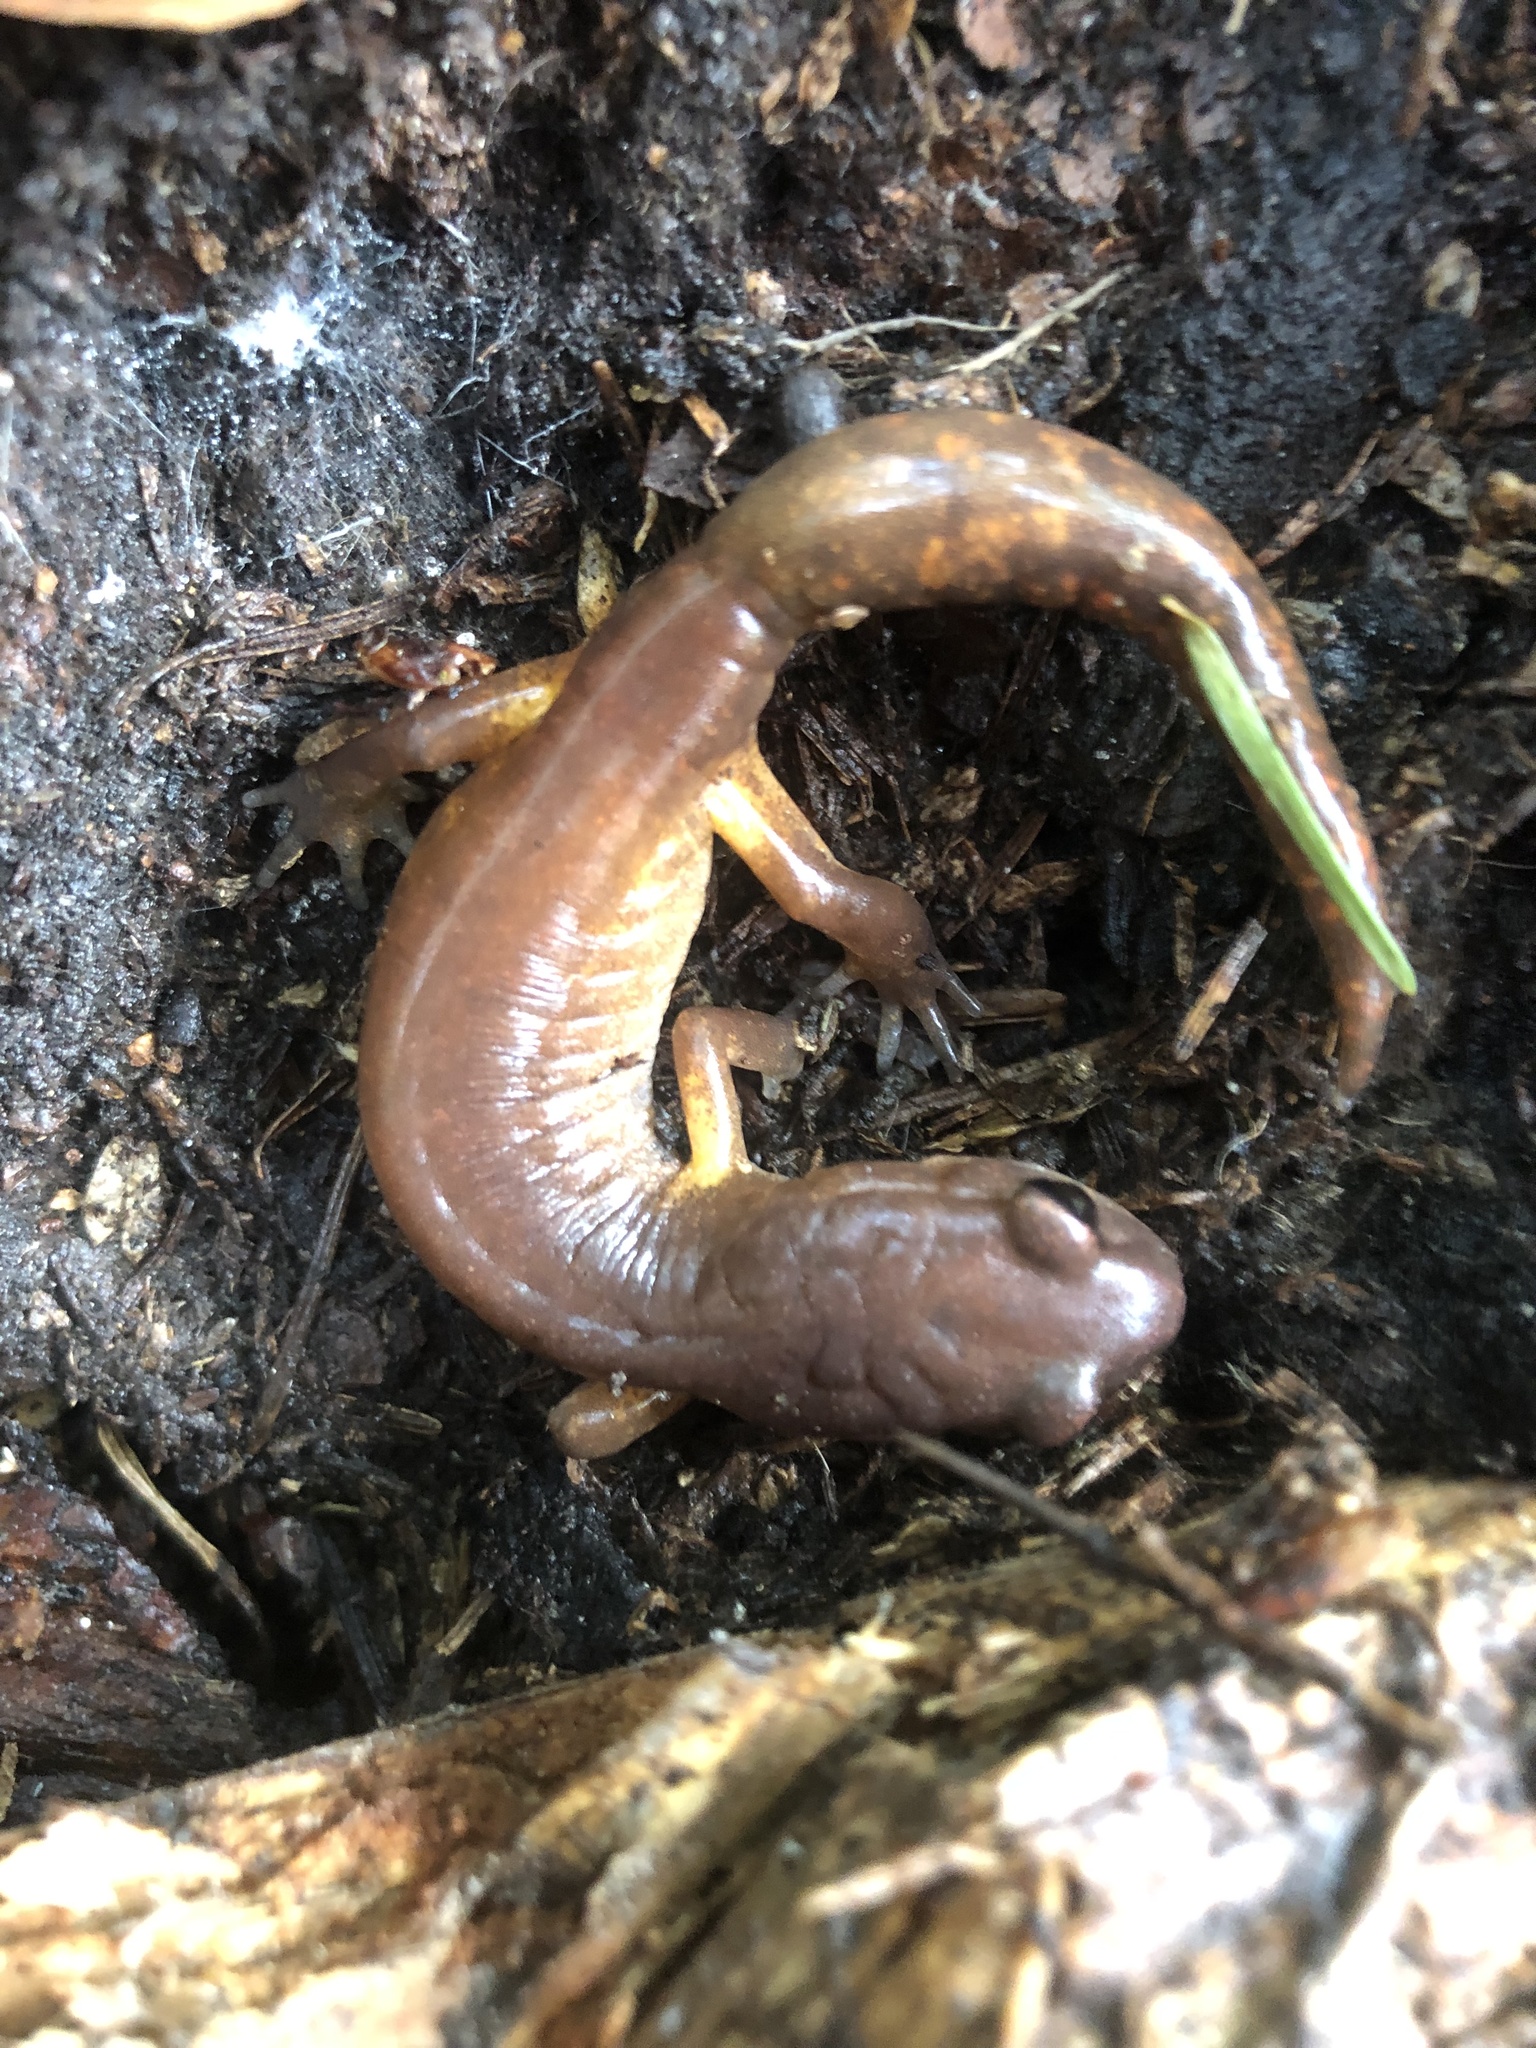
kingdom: Animalia
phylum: Chordata
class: Amphibia
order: Caudata
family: Plethodontidae
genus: Ensatina
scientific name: Ensatina eschscholtzii
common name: Ensatina
